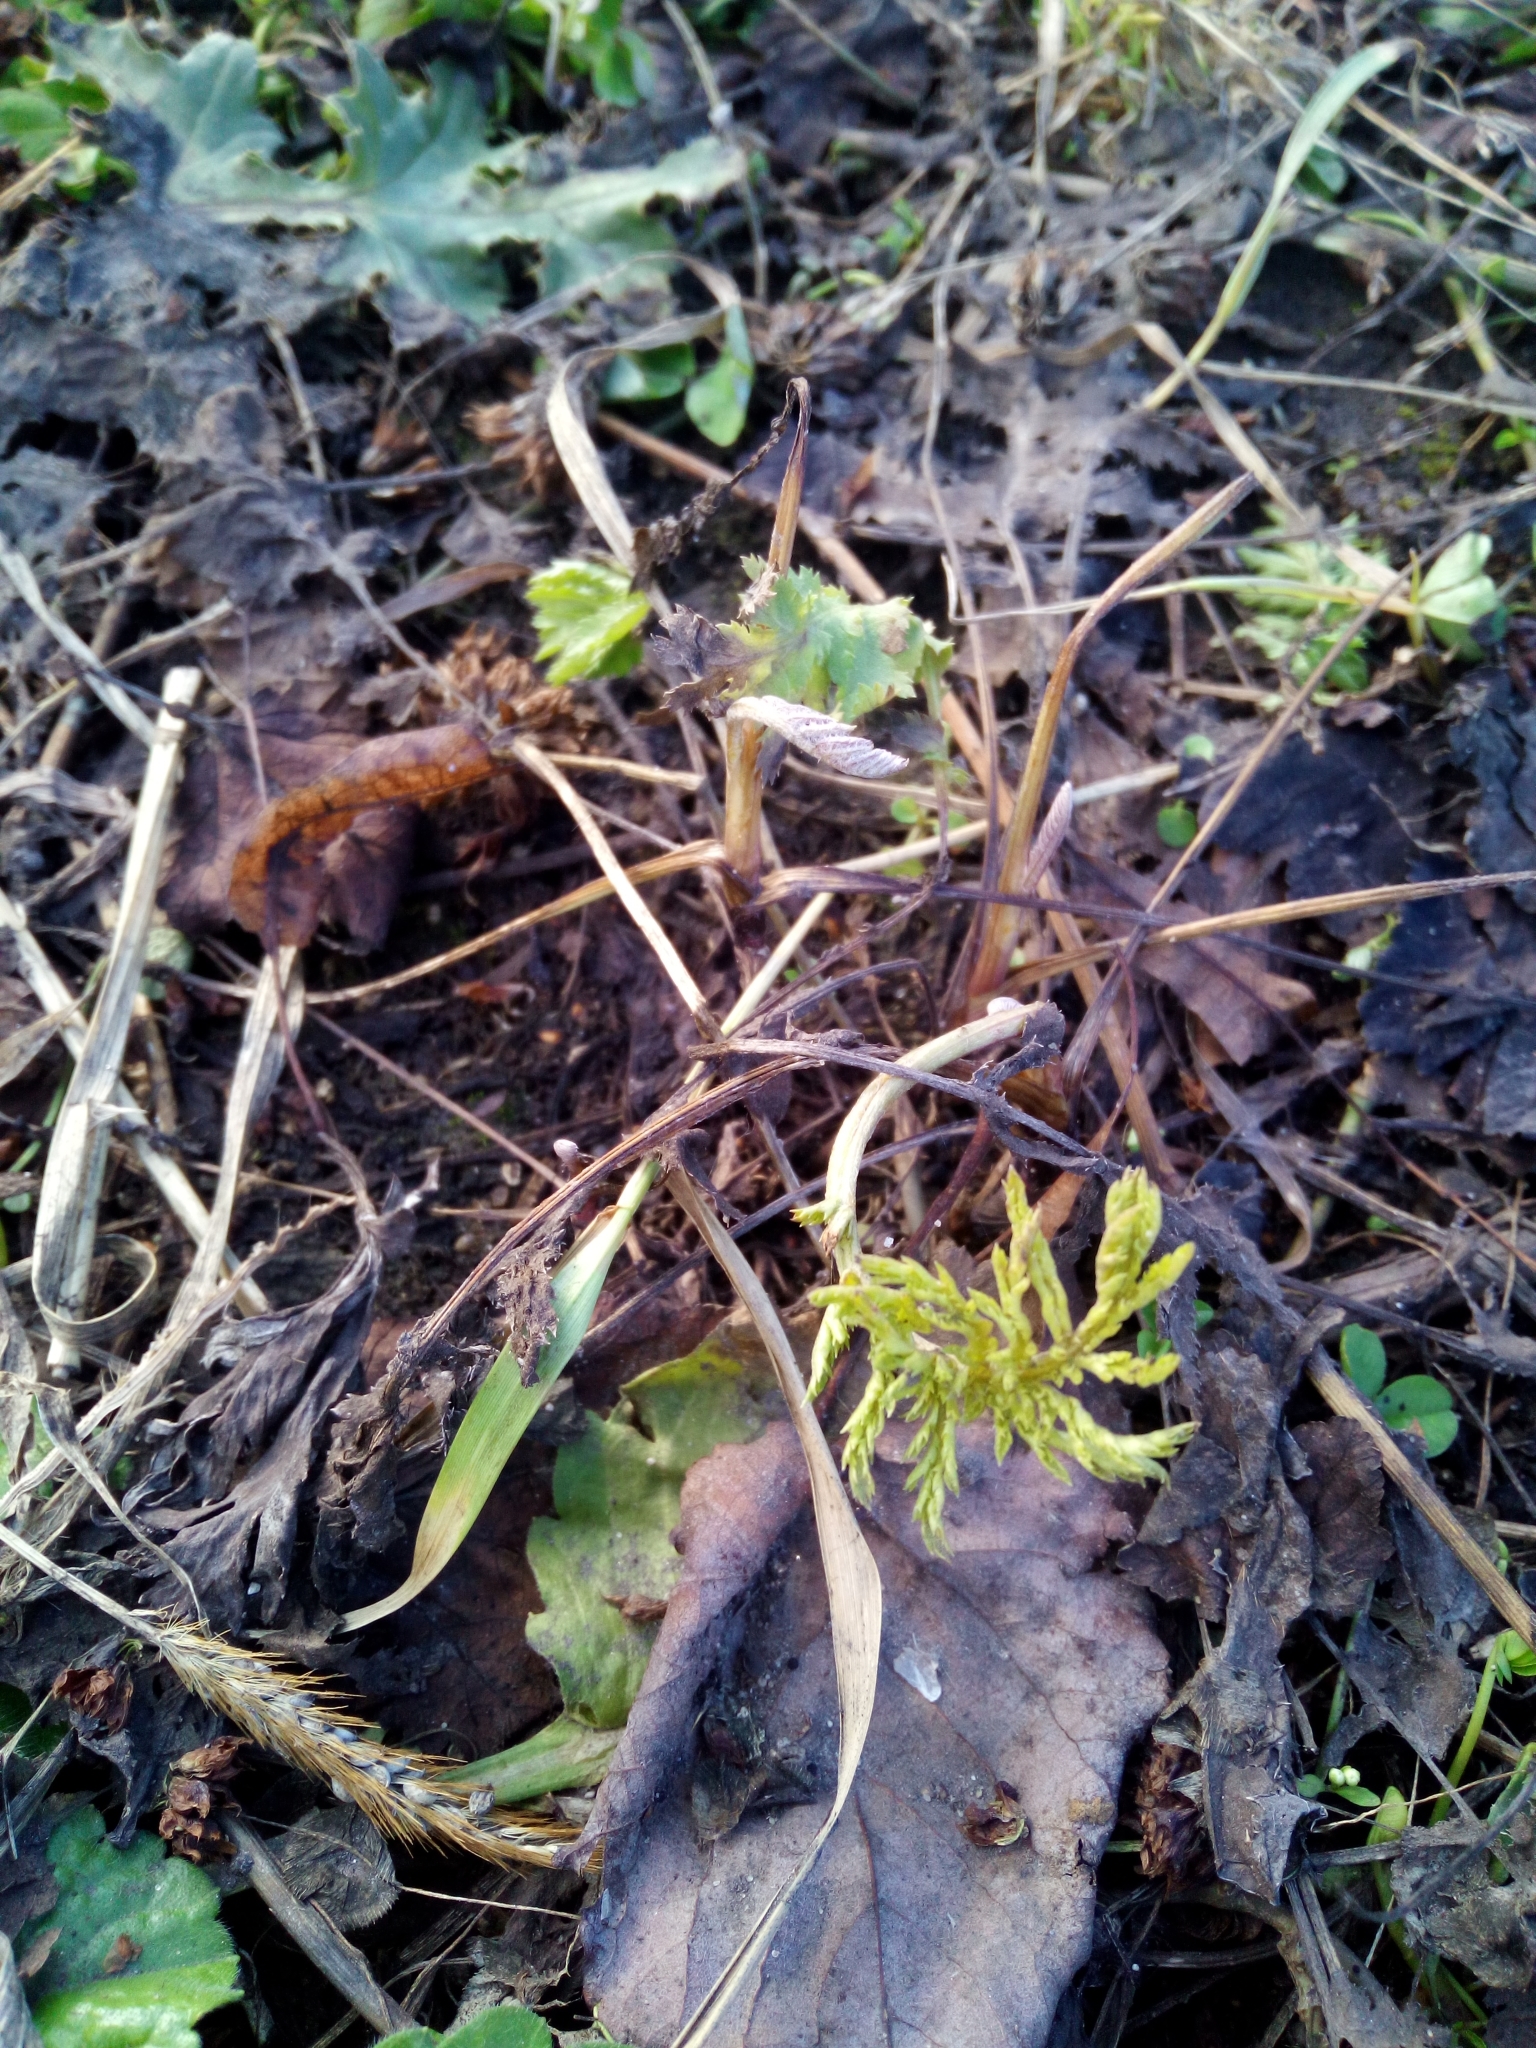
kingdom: Plantae
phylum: Tracheophyta
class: Magnoliopsida
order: Asterales
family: Asteraceae
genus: Tanacetum
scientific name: Tanacetum vulgare
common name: Common tansy
